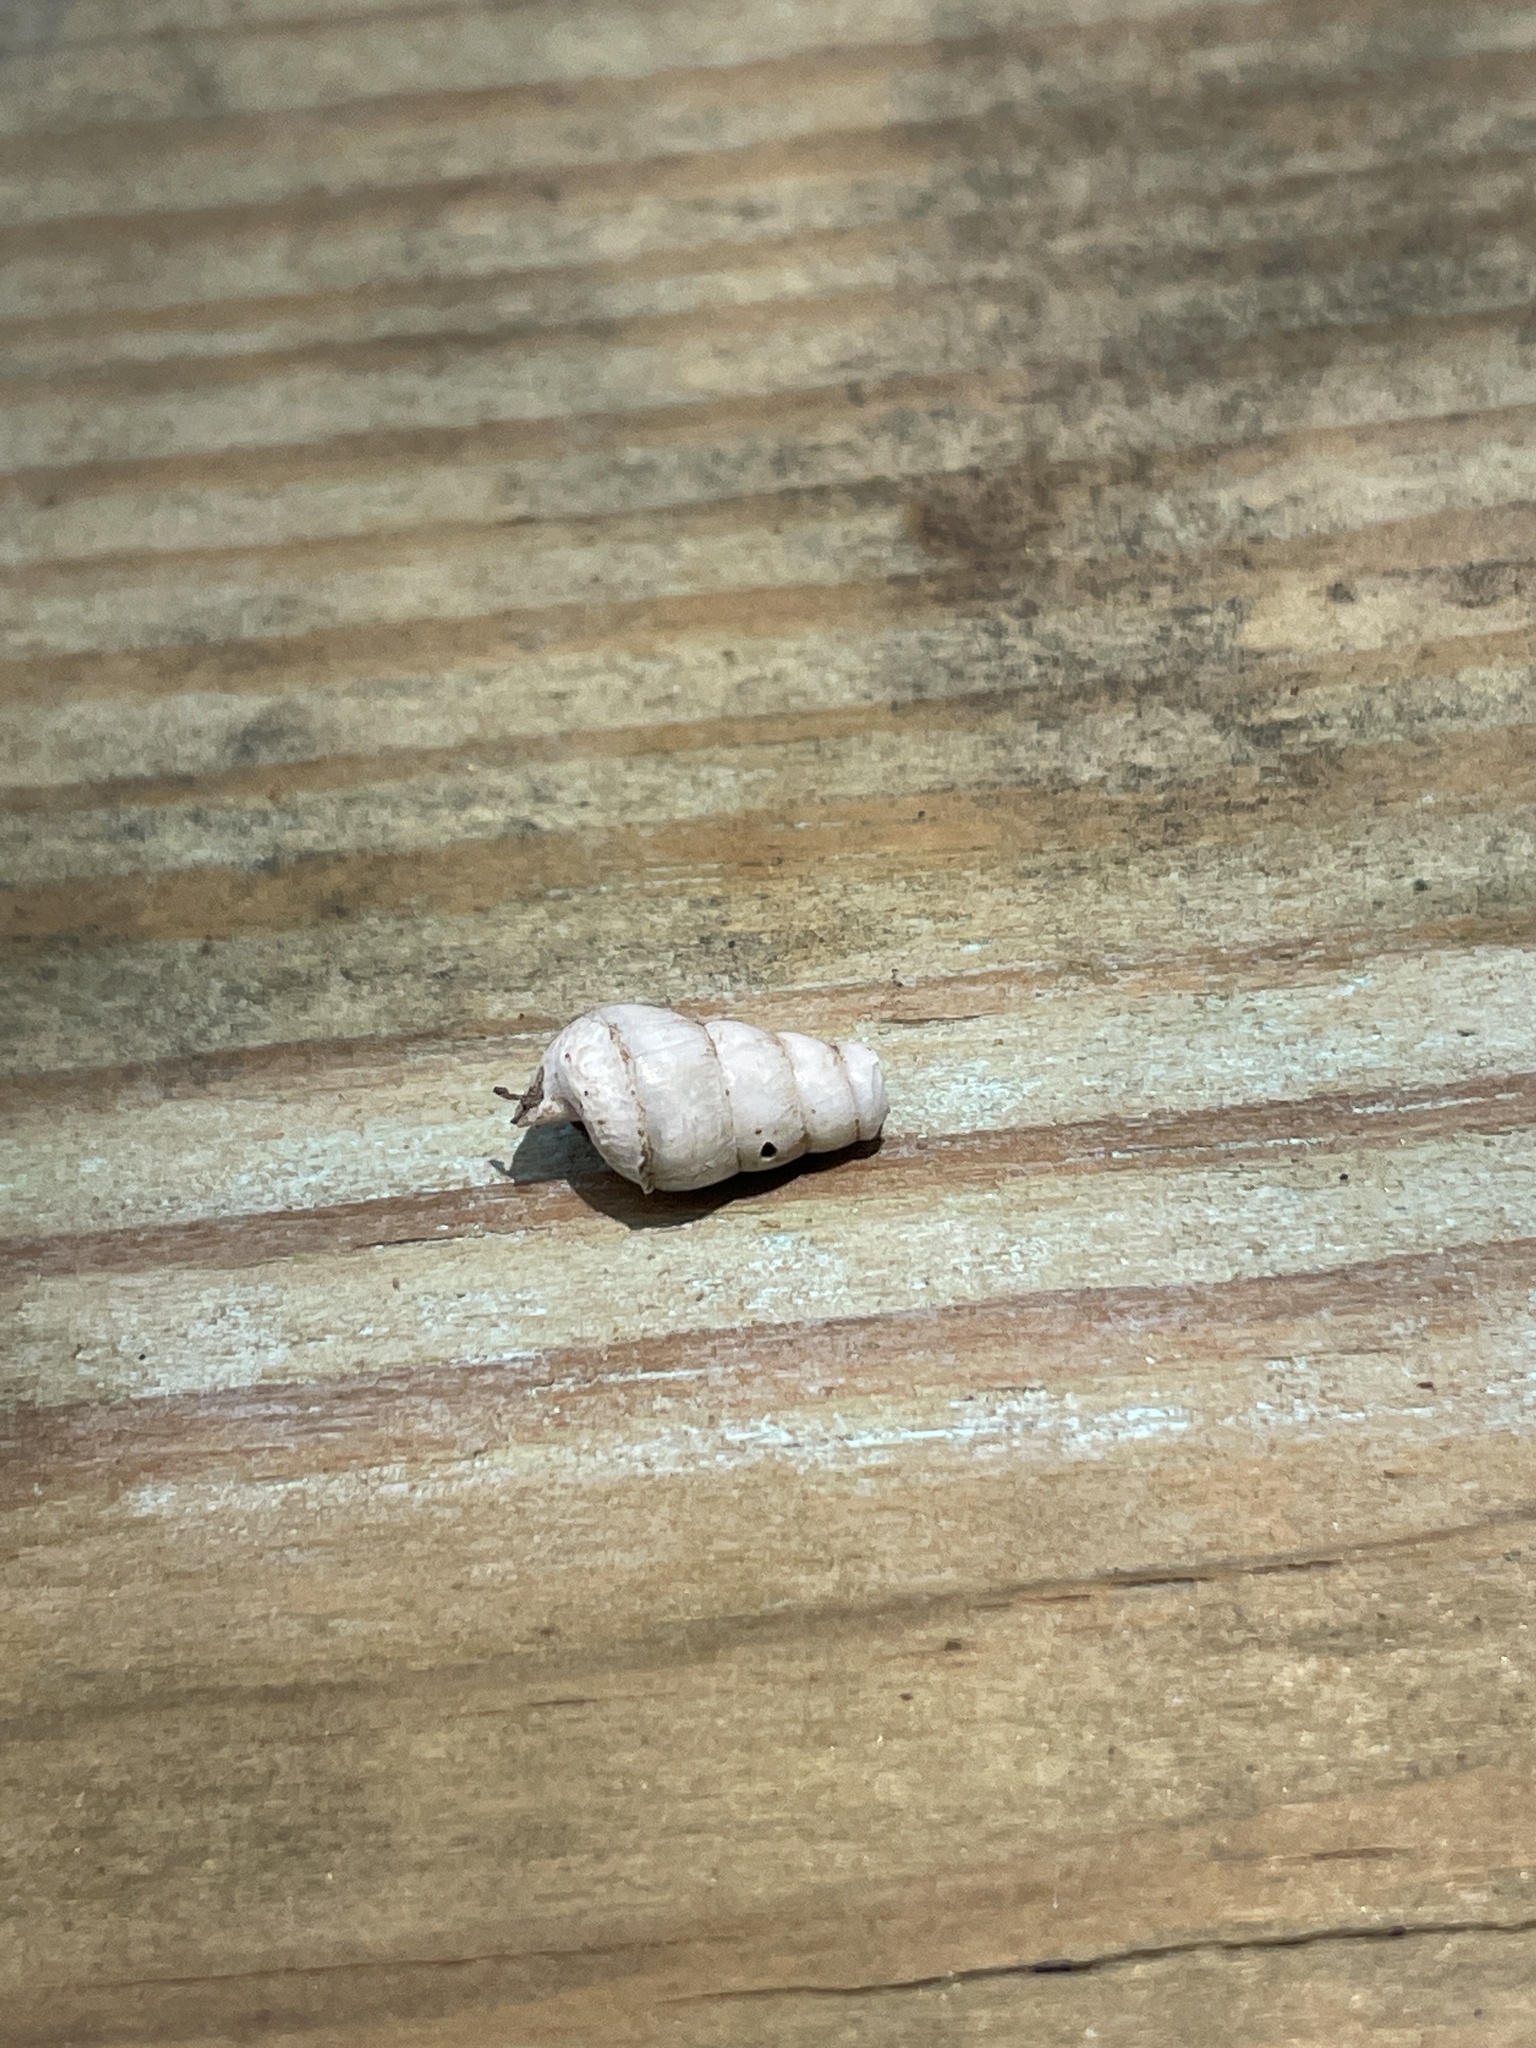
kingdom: Animalia
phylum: Mollusca
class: Gastropoda
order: Stylommatophora
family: Achatinidae
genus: Rumina
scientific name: Rumina decollata
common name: Decollate snail
